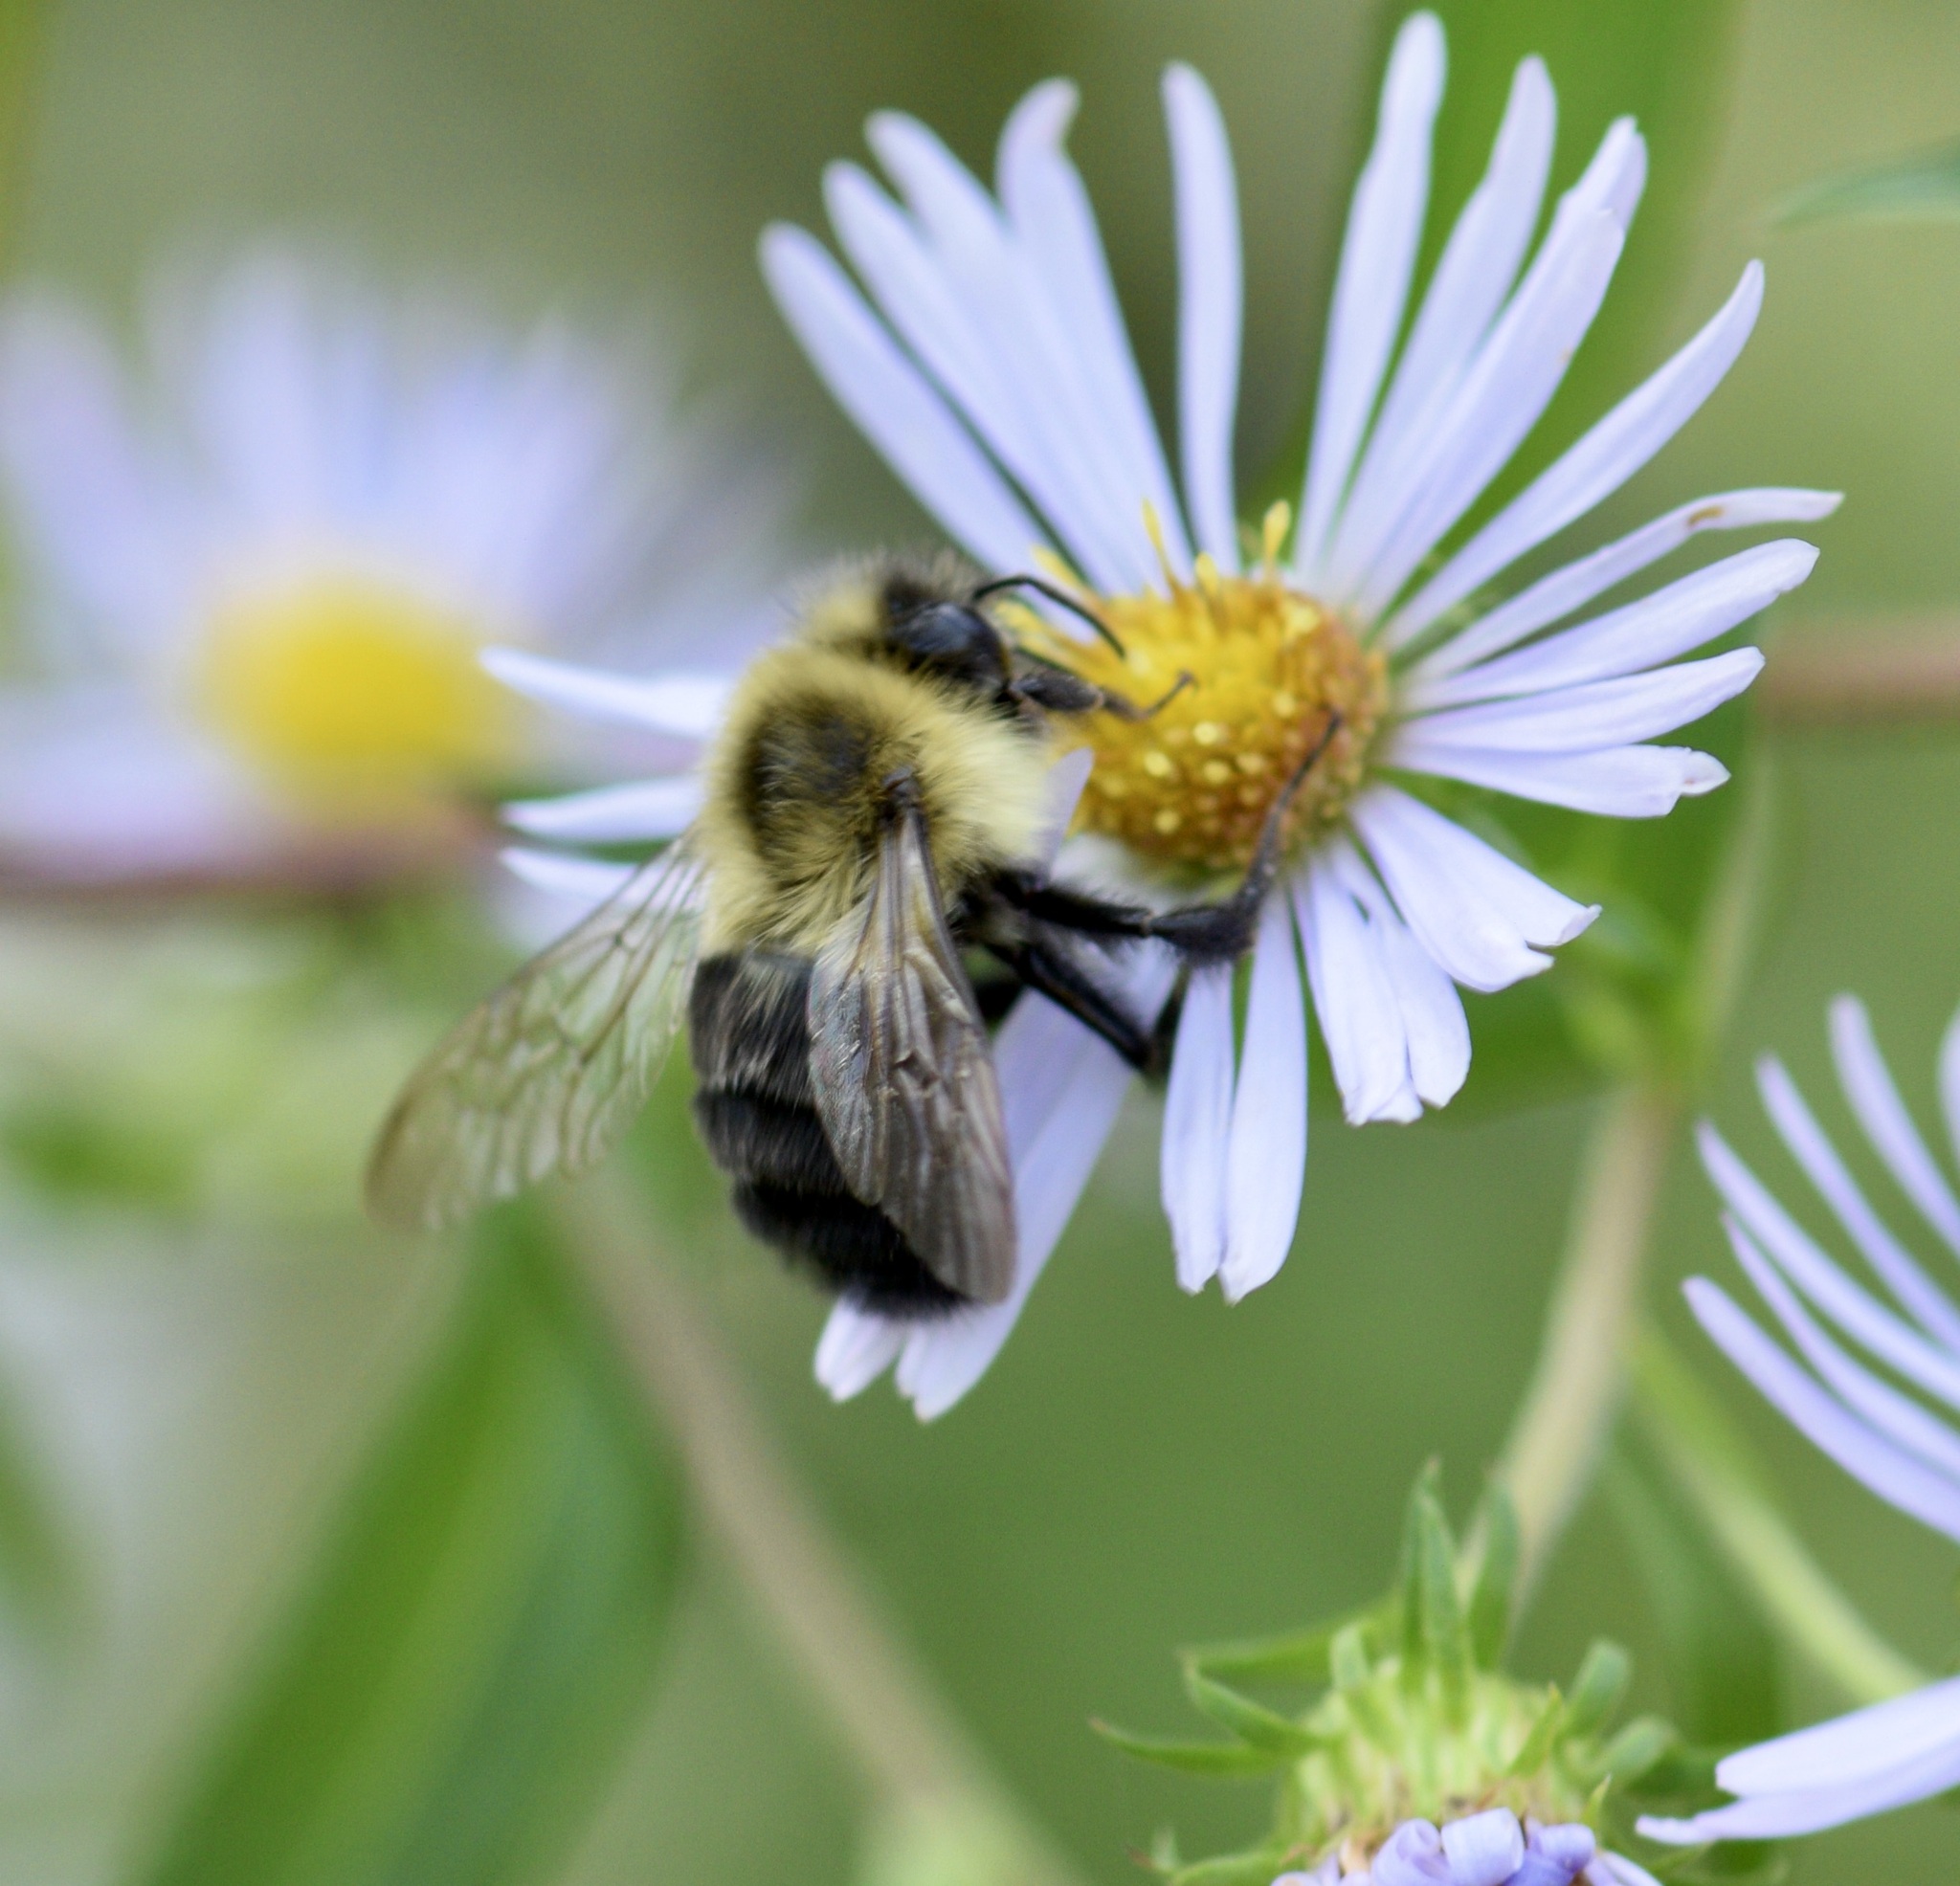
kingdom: Animalia
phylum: Arthropoda
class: Insecta
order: Hymenoptera
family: Apidae
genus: Bombus
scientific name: Bombus impatiens
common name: Common eastern bumble bee
